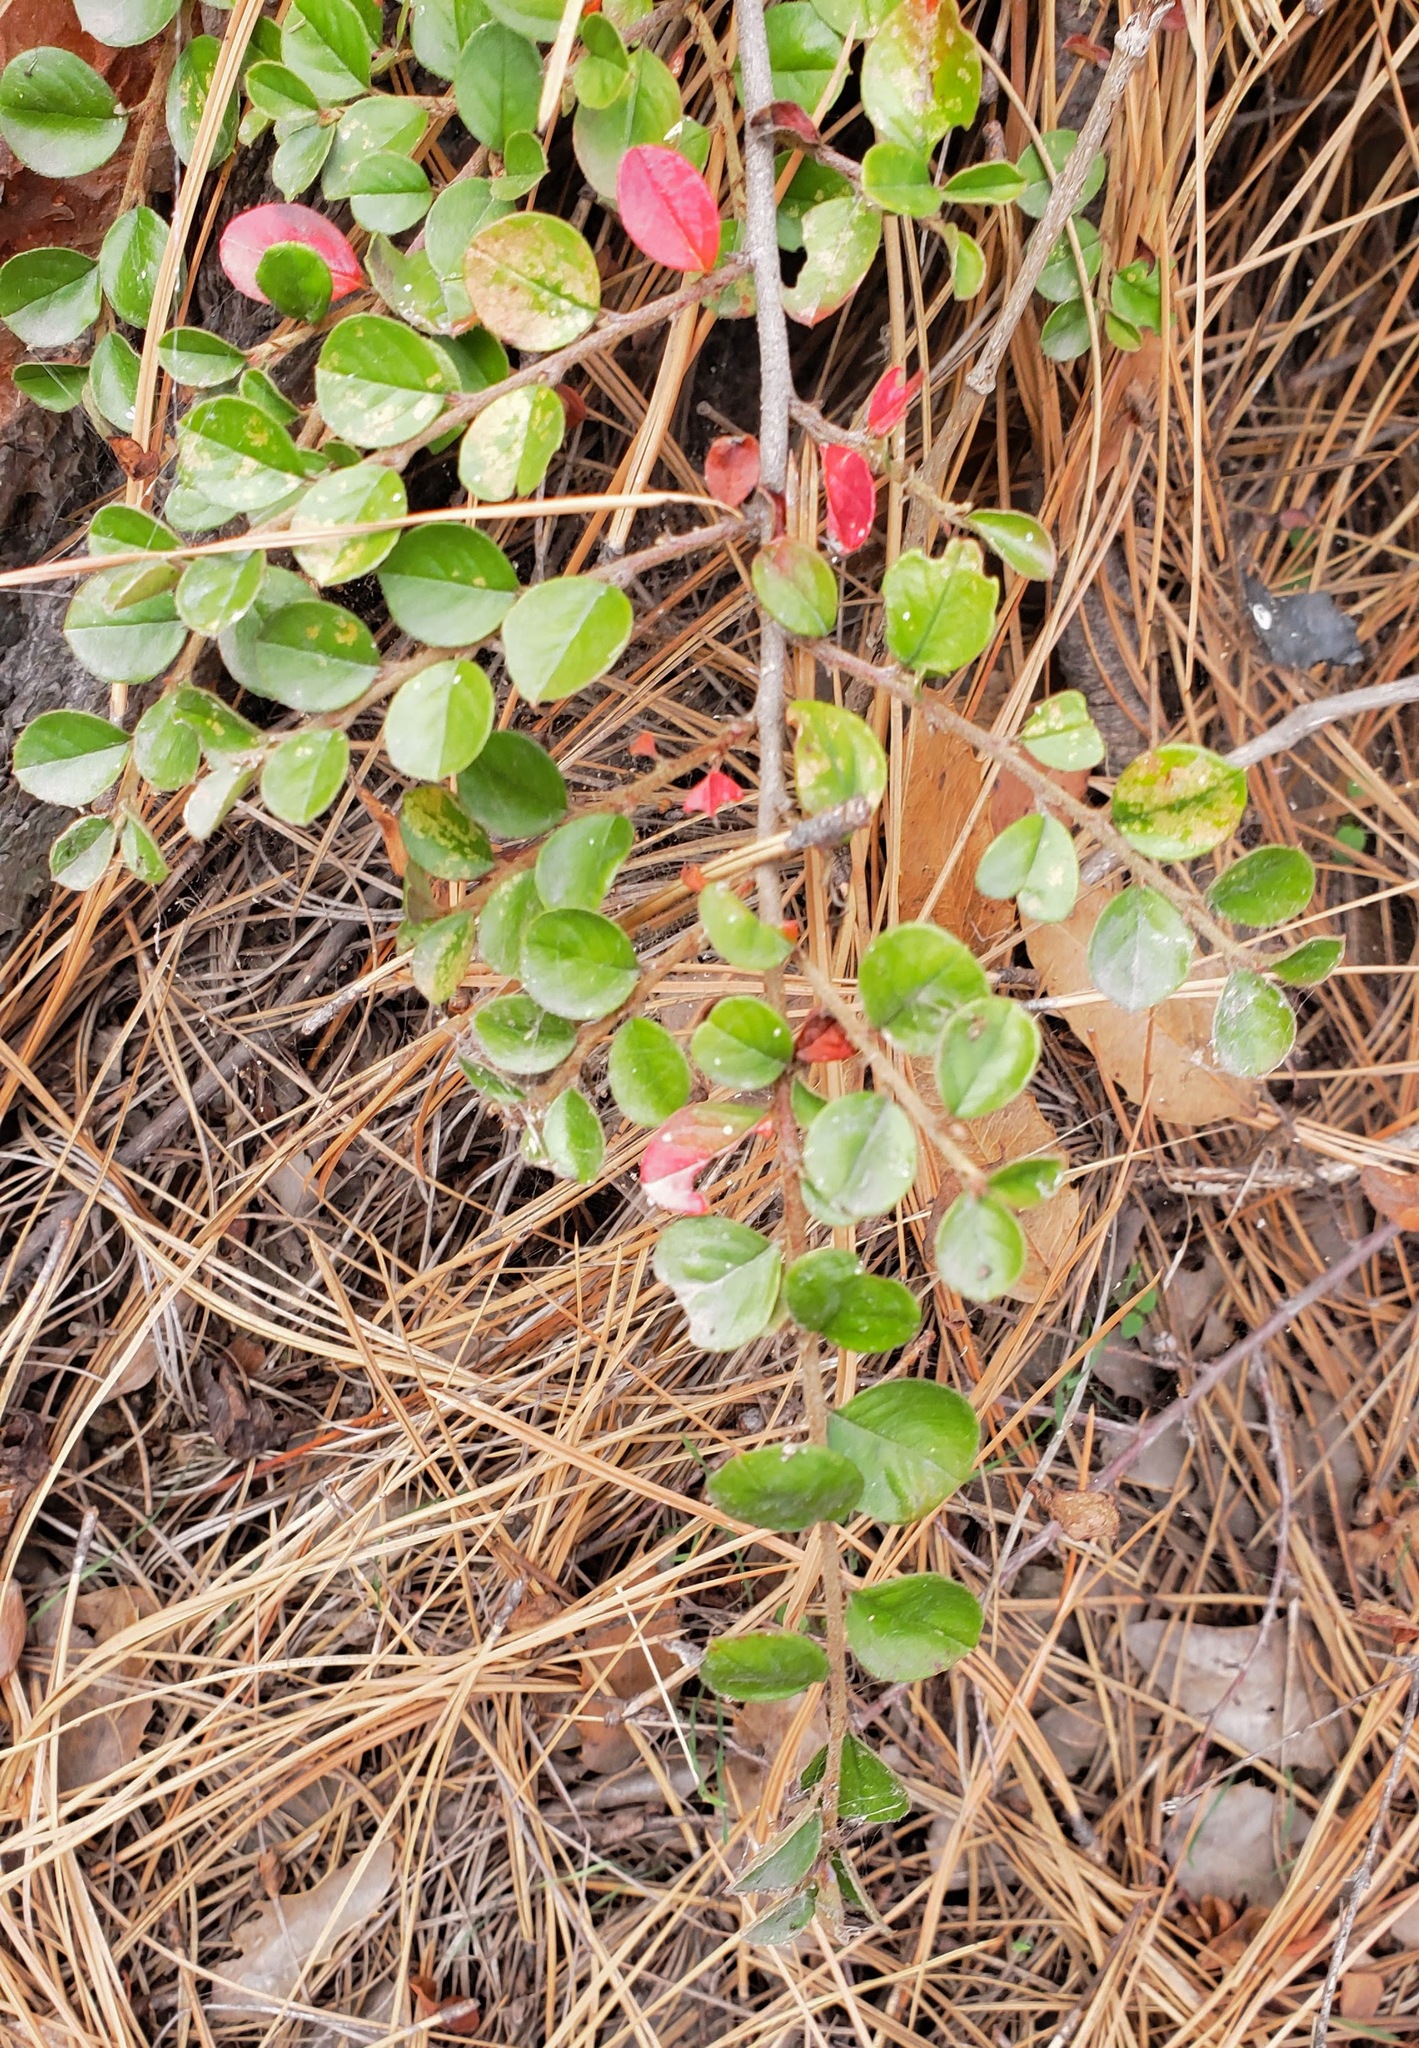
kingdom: Plantae
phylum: Tracheophyta
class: Magnoliopsida
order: Dipsacales
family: Caprifoliaceae
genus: Linnaea
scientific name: Linnaea borealis
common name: Twinflower
